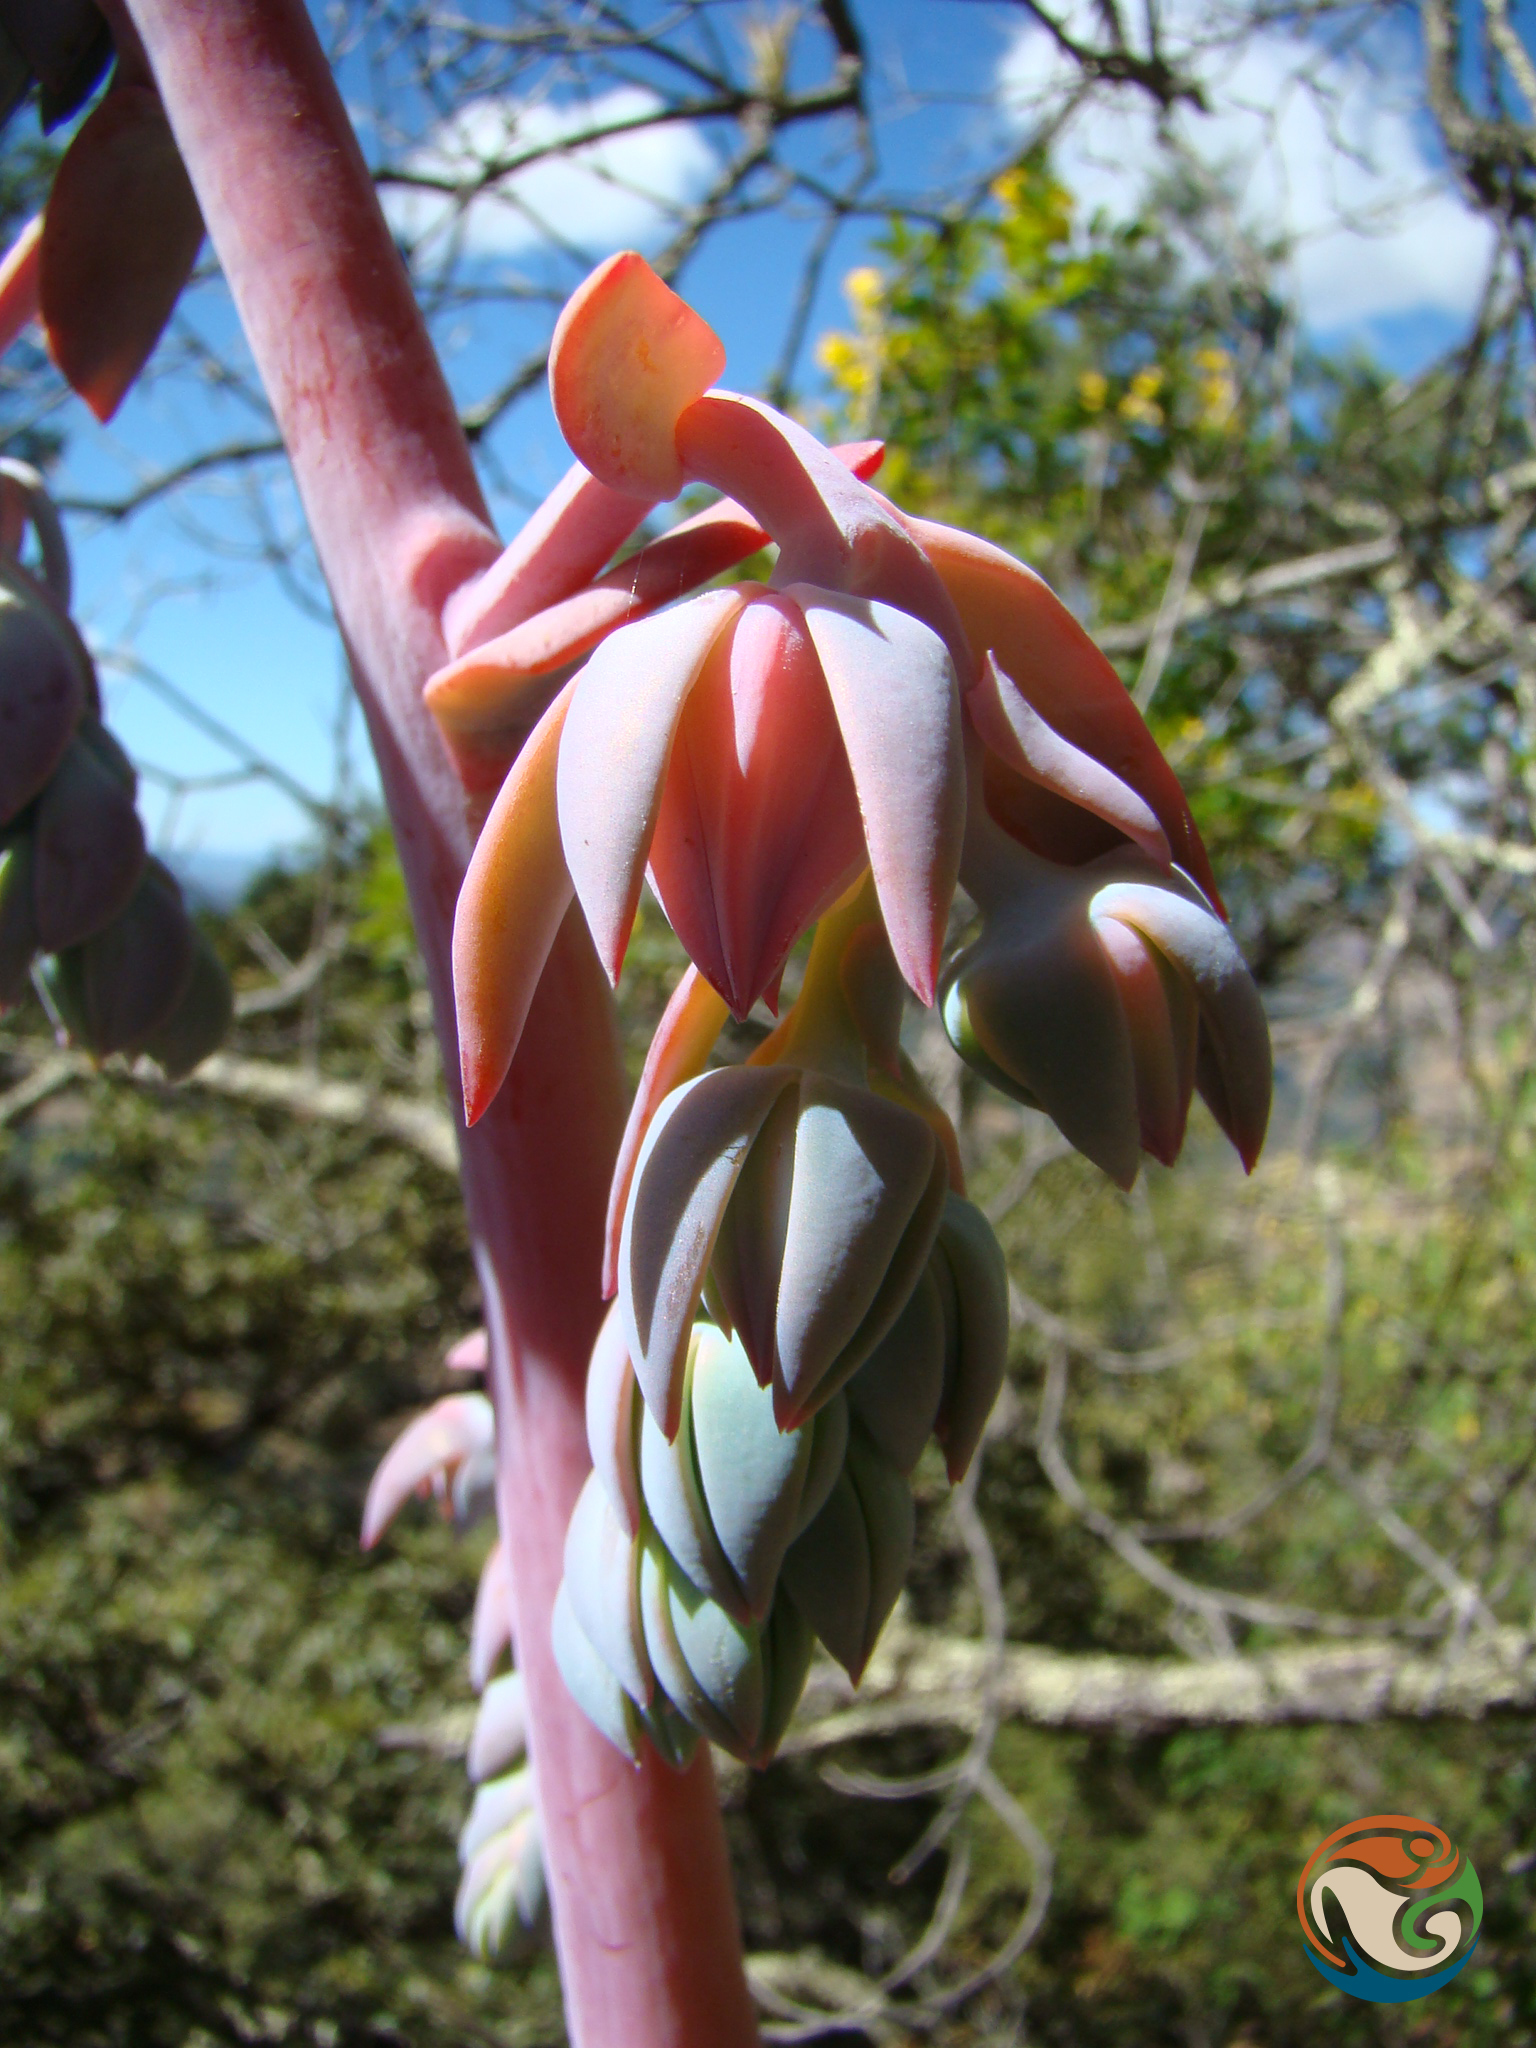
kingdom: Plantae
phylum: Tracheophyta
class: Magnoliopsida
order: Saxifragales
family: Crassulaceae
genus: Echeveria
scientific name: Echeveria gigantea
